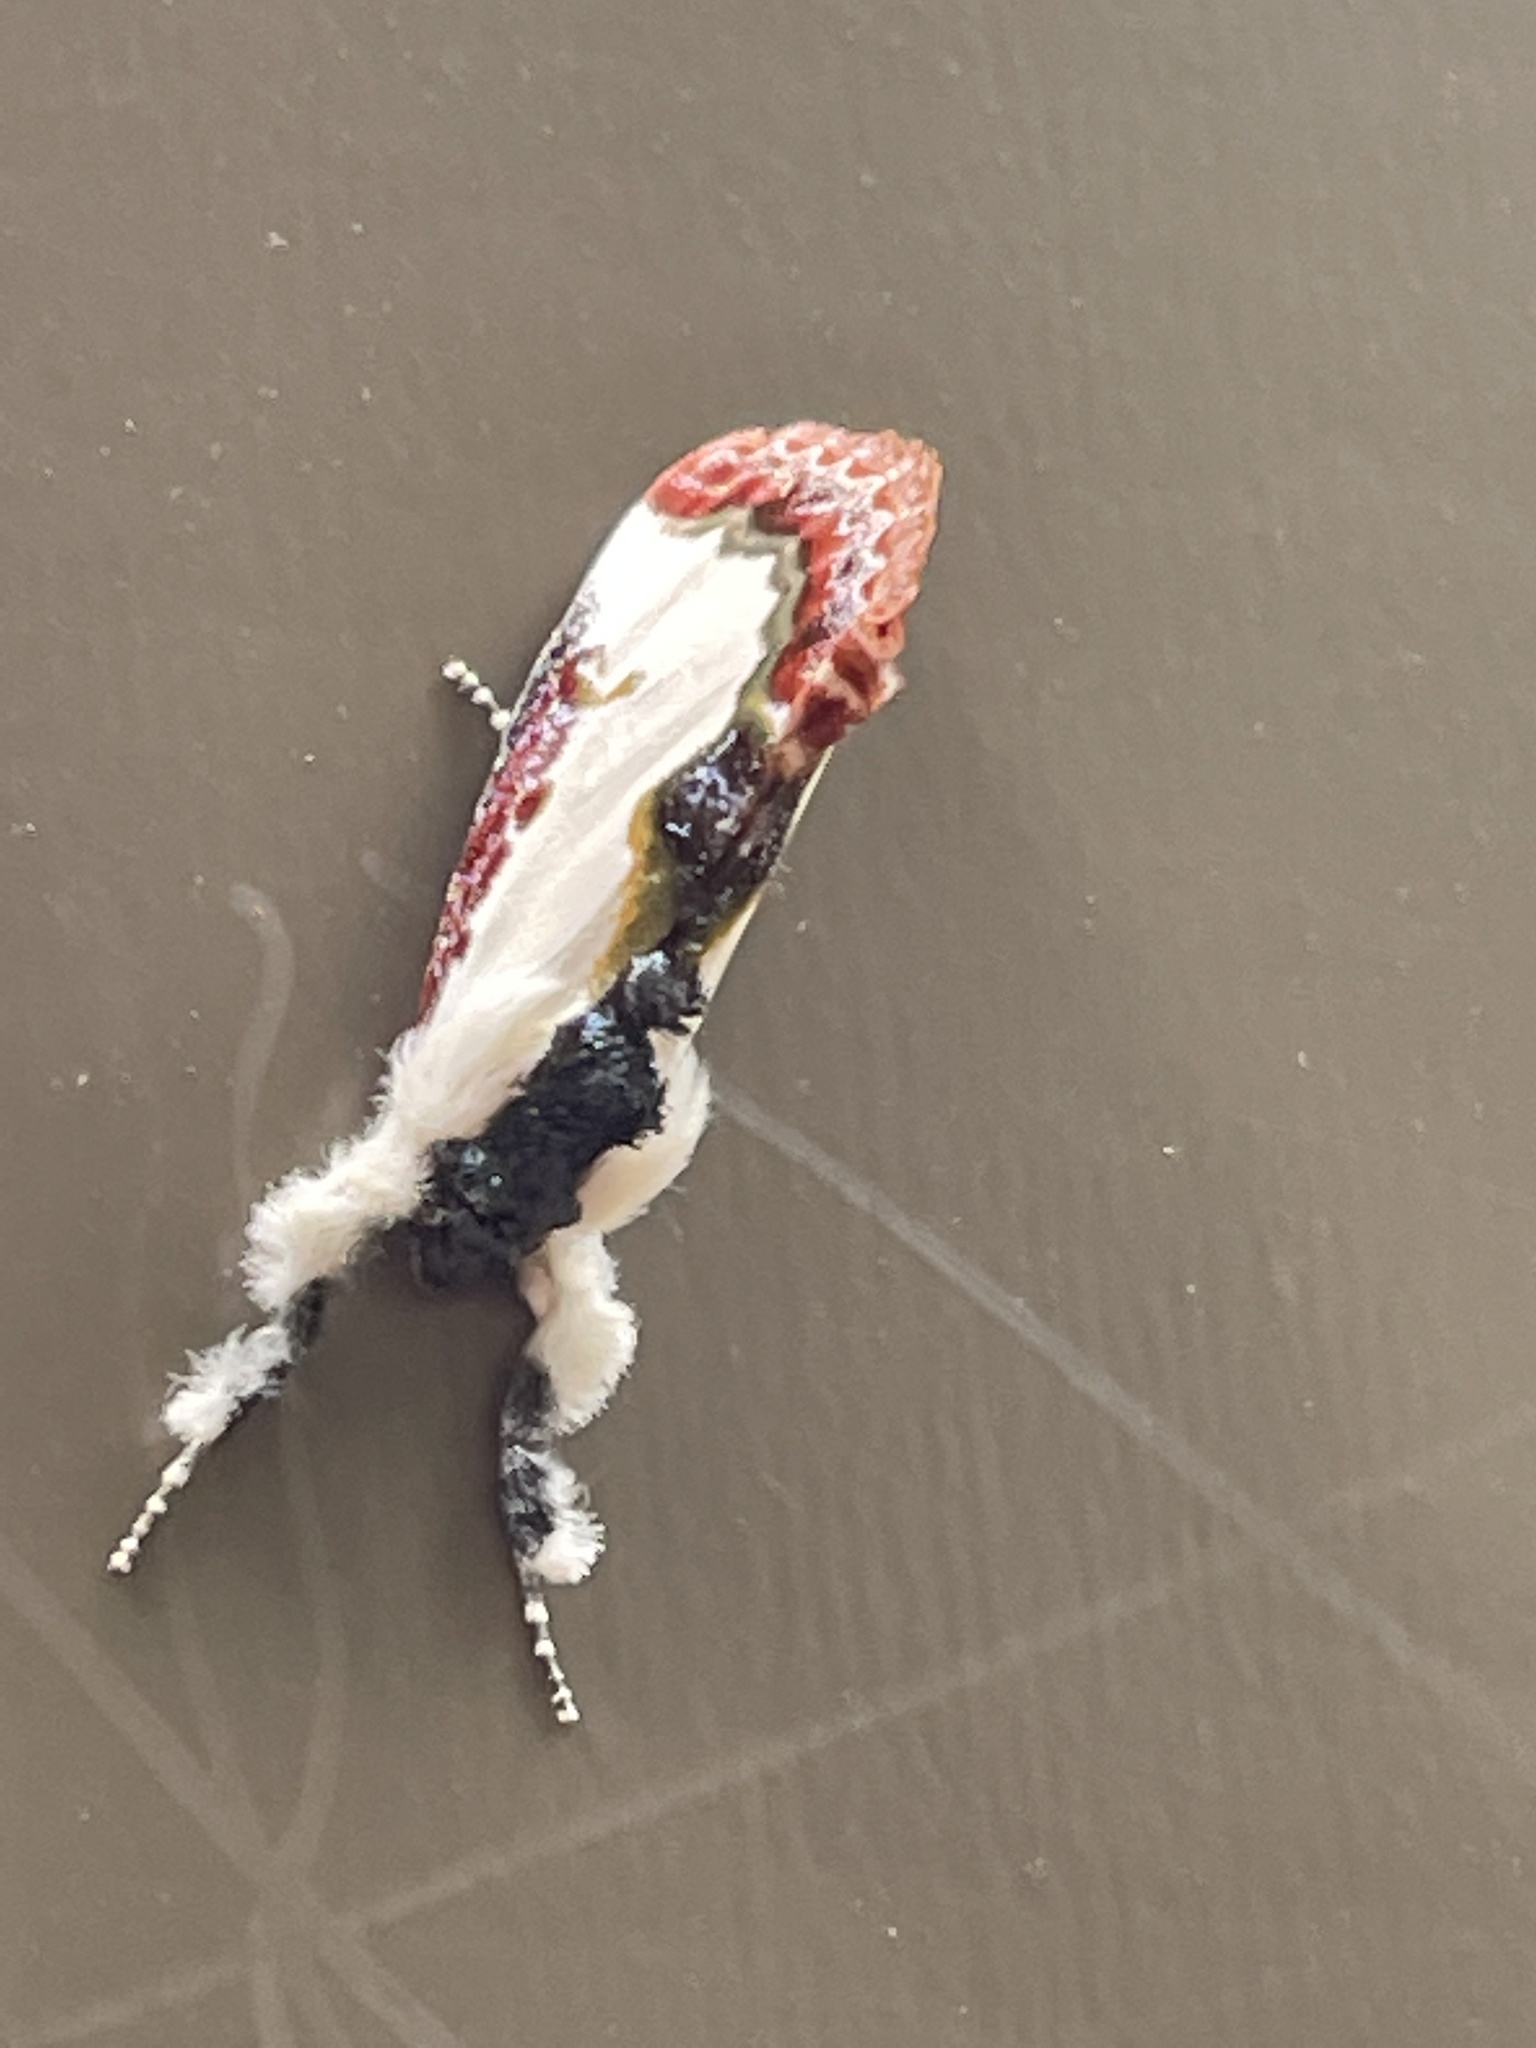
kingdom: Animalia
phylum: Arthropoda
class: Insecta
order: Lepidoptera
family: Noctuidae
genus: Eudryas
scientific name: Eudryas unio
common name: Pearly wood-nymph
